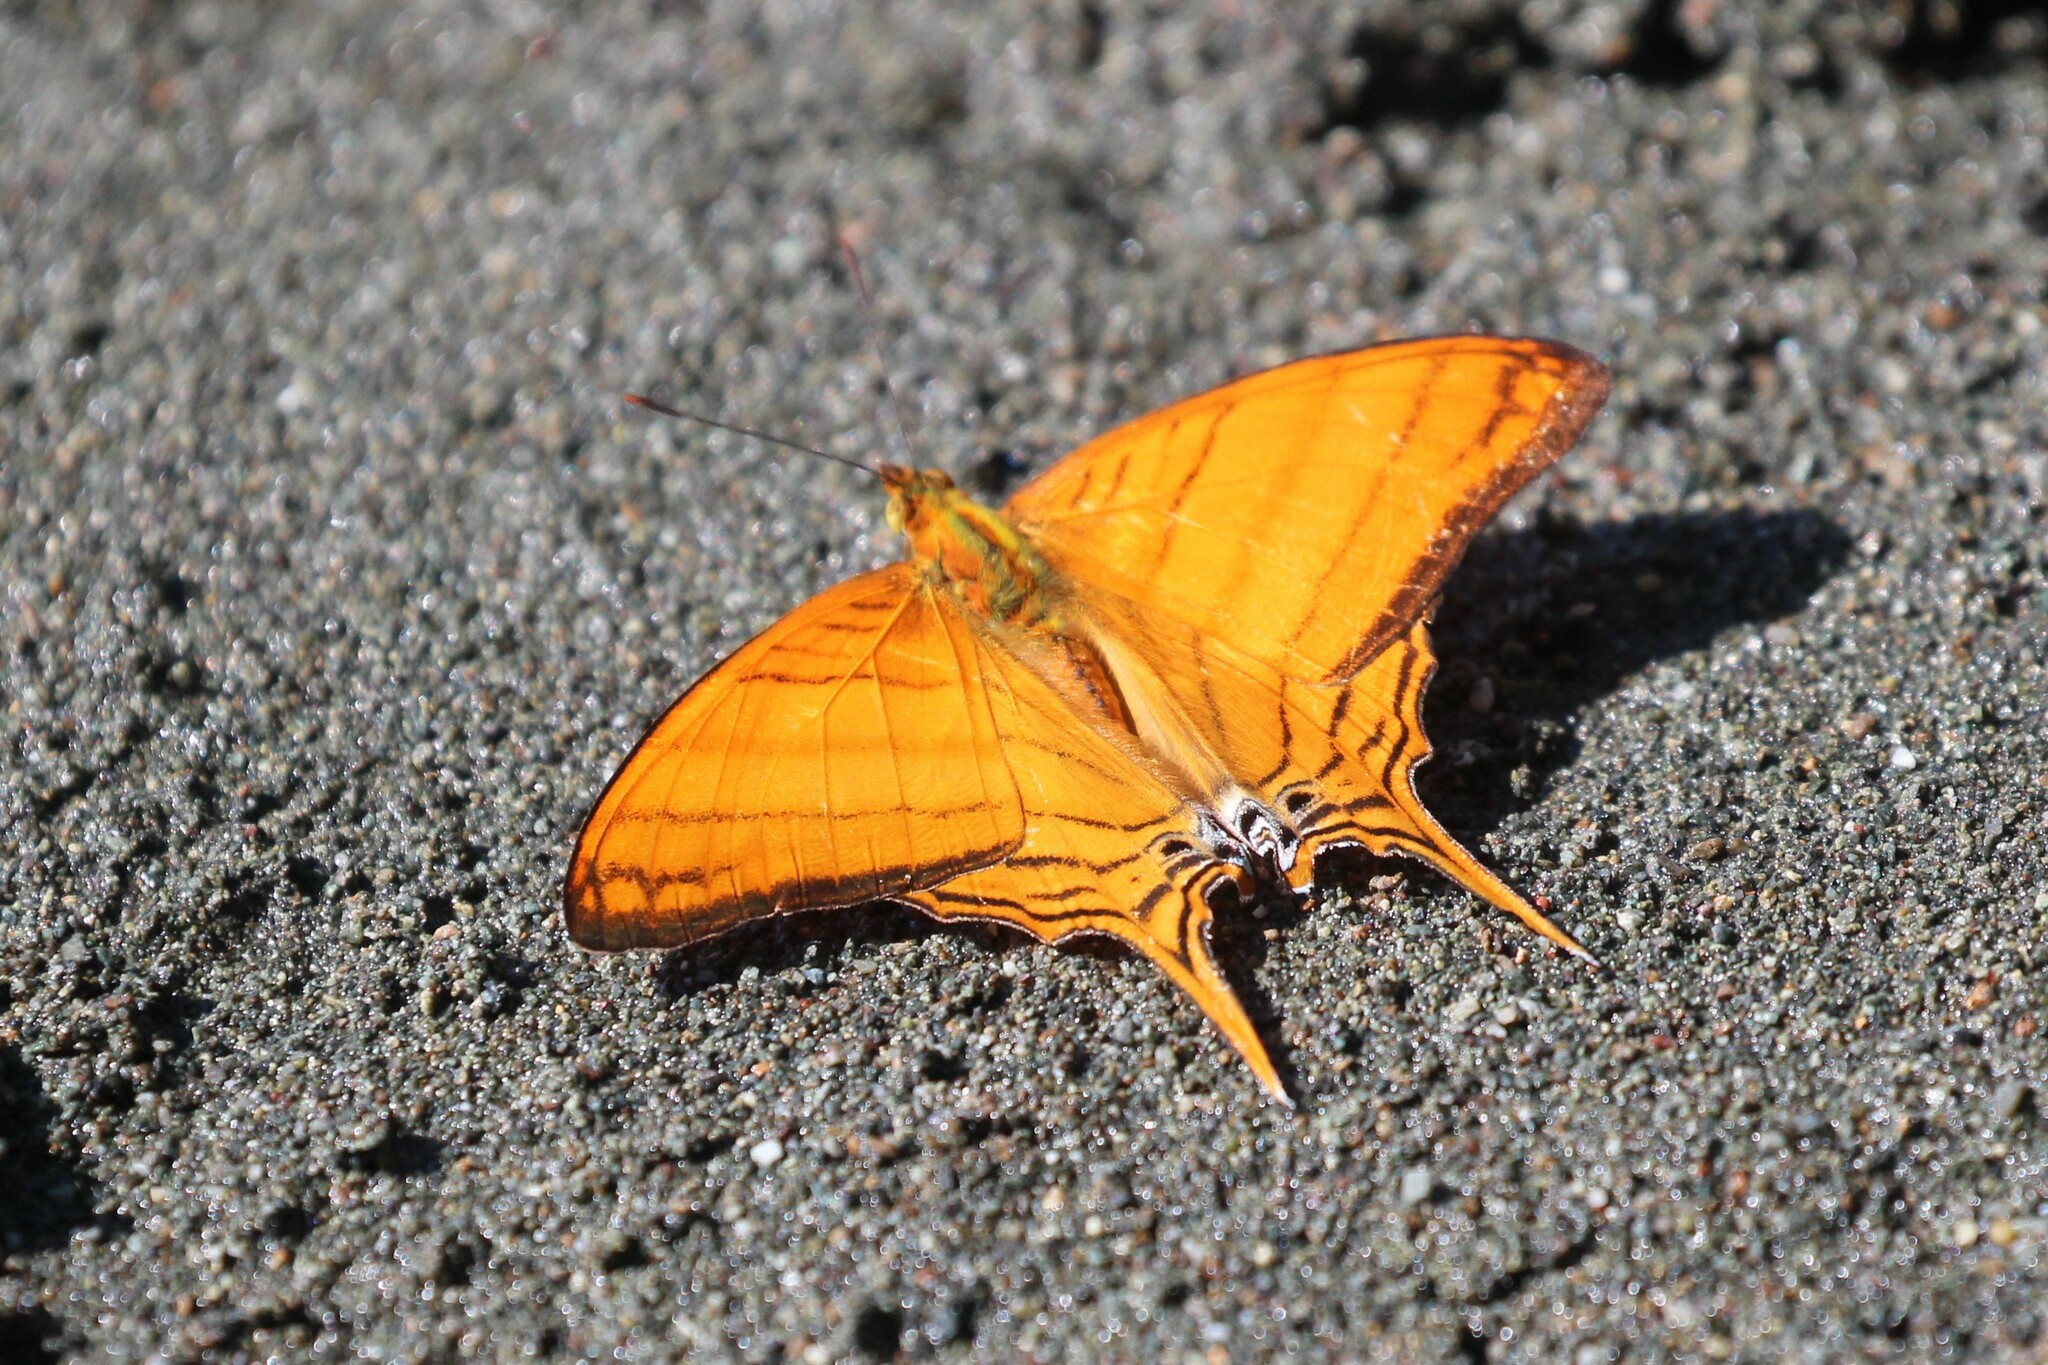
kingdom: Animalia
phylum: Arthropoda
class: Insecta
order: Lepidoptera
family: Nymphalidae
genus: Marpesia
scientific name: Marpesia berania
